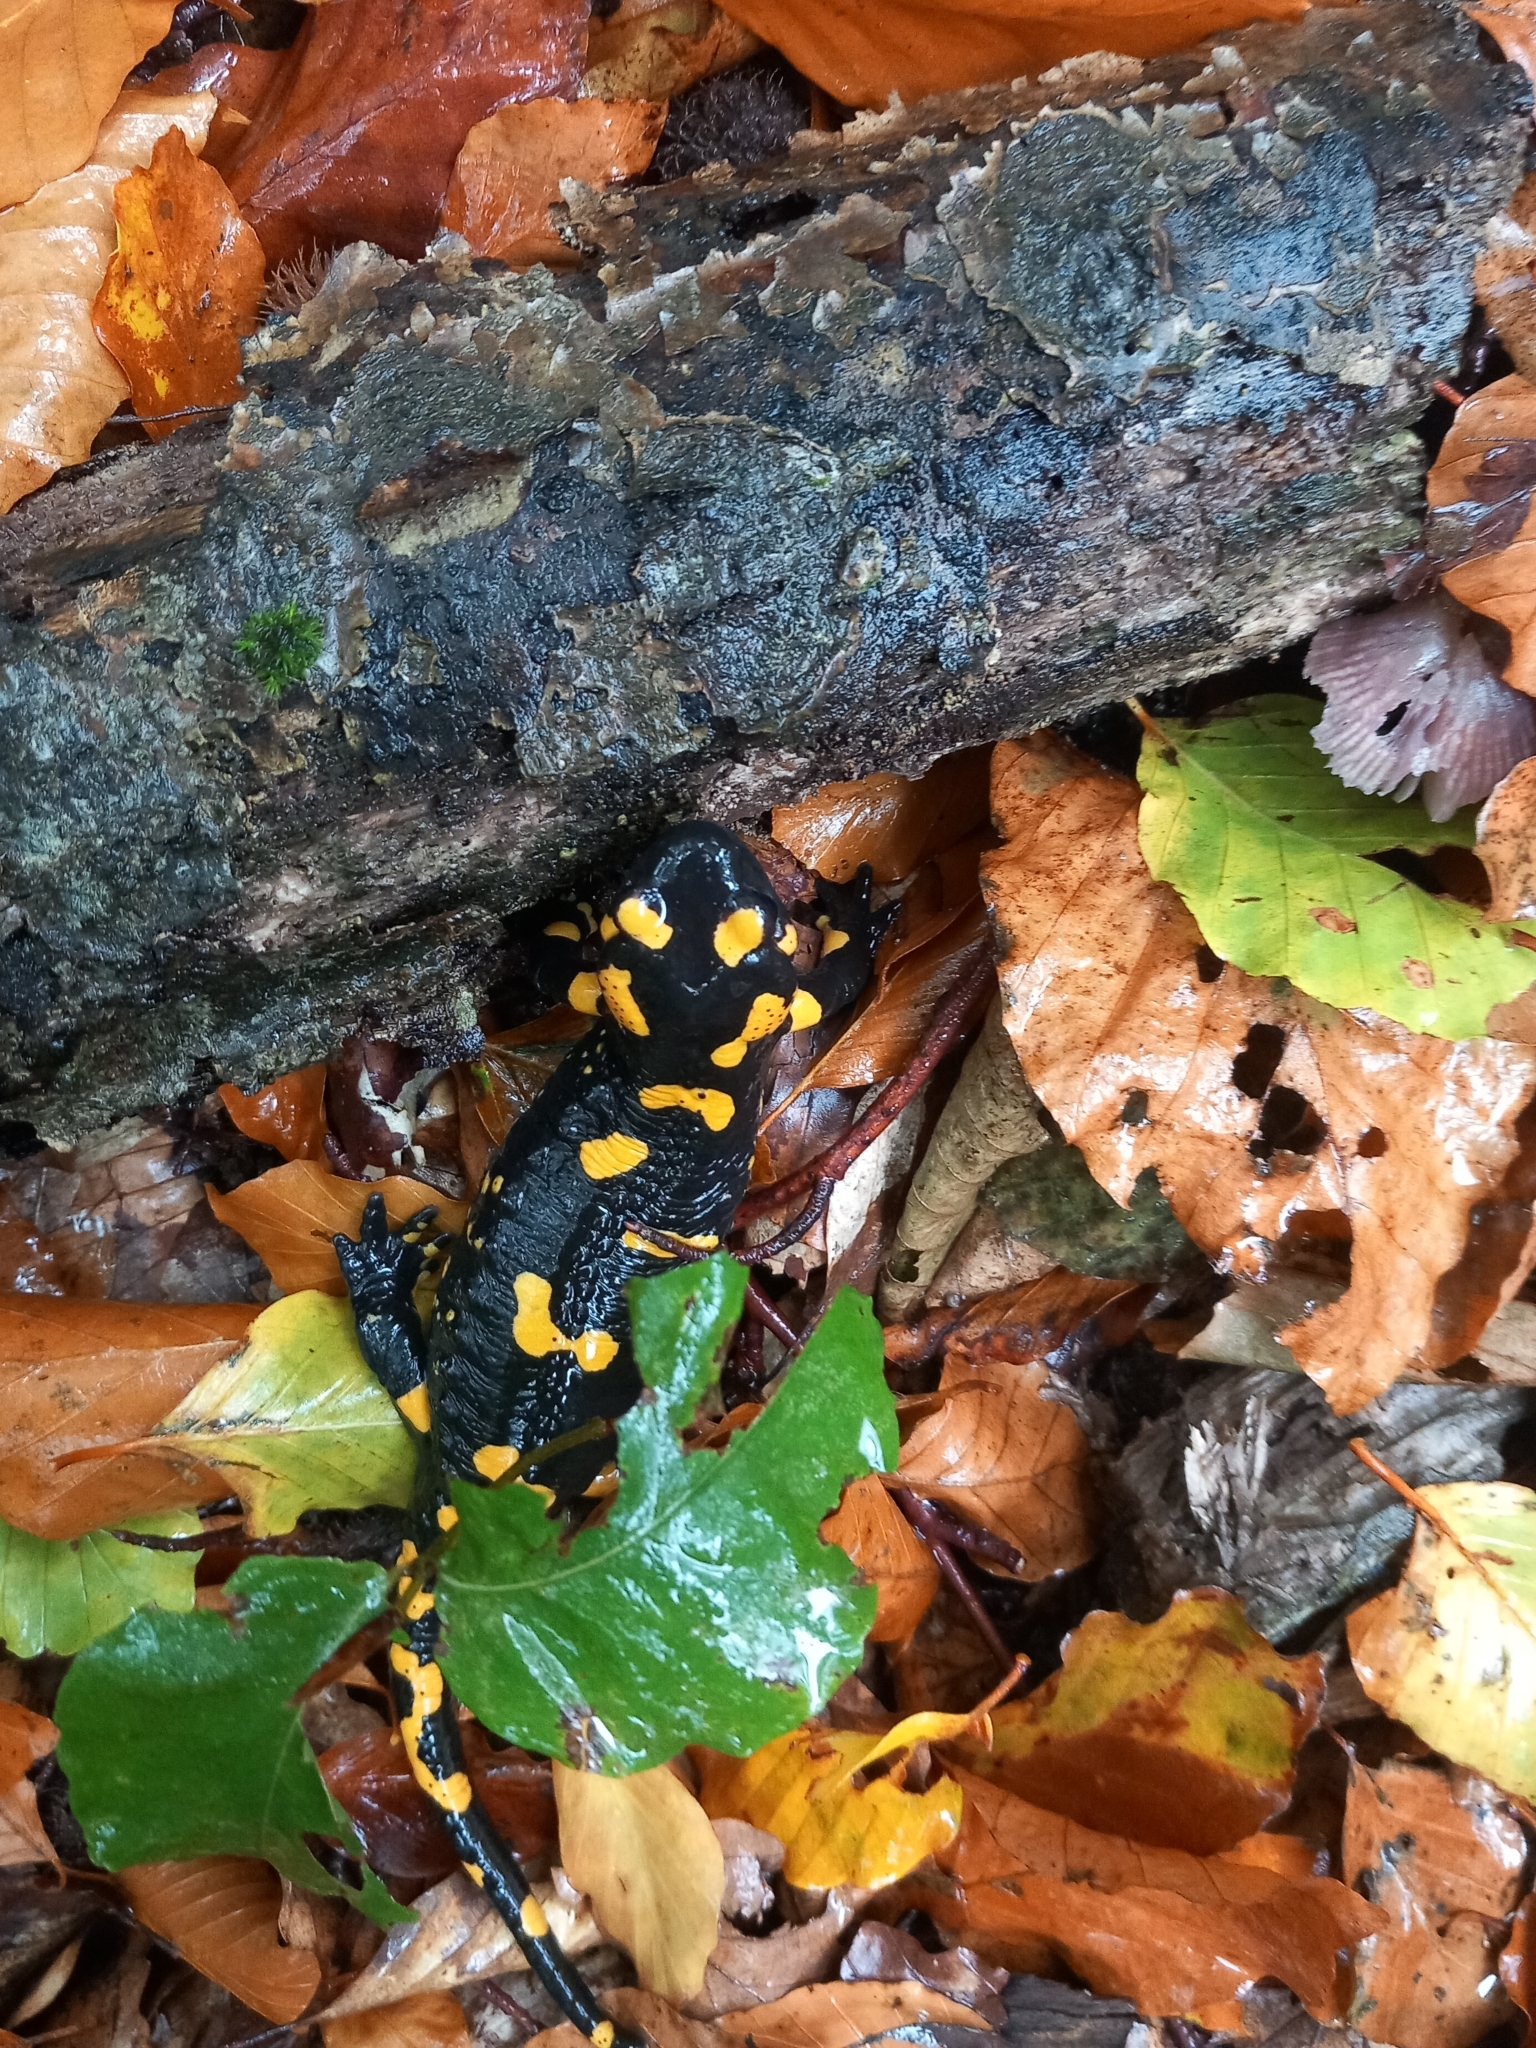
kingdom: Animalia
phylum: Chordata
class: Amphibia
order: Caudata
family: Salamandridae
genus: Salamandra
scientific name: Salamandra salamandra
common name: Fire salamander
